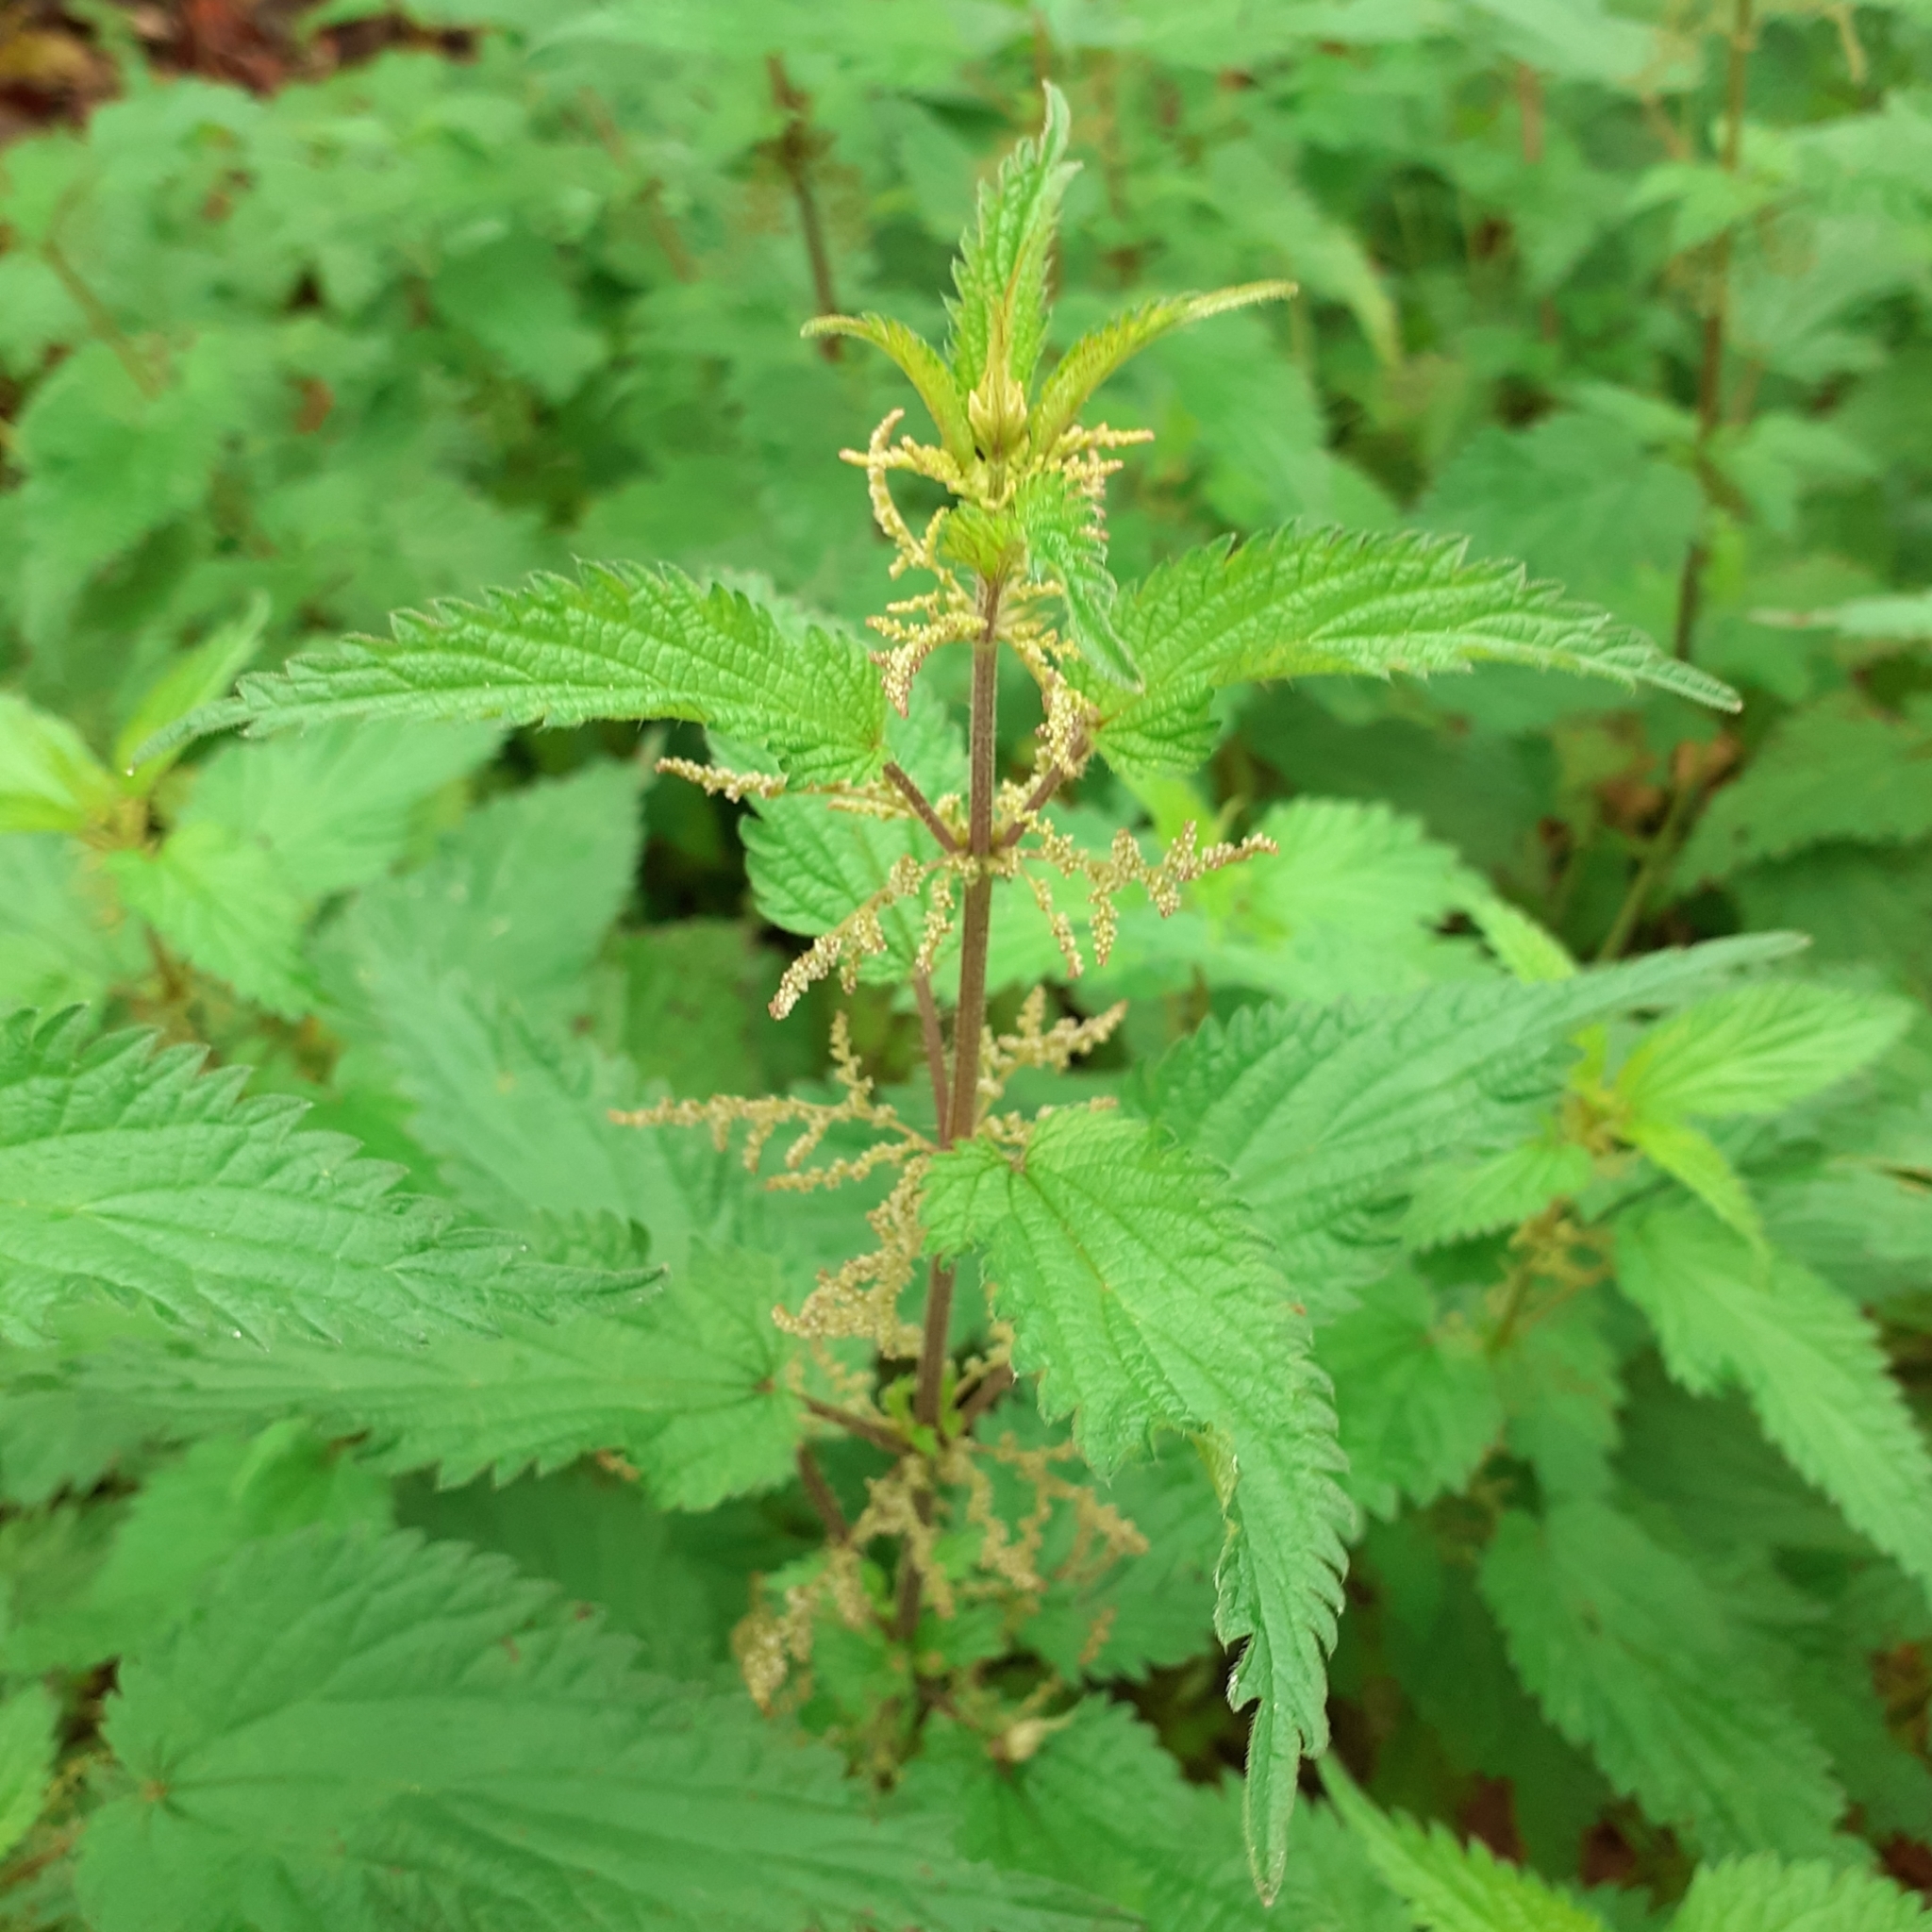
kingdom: Plantae
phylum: Tracheophyta
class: Magnoliopsida
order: Rosales
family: Urticaceae
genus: Urtica
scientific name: Urtica dioica
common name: Common nettle
